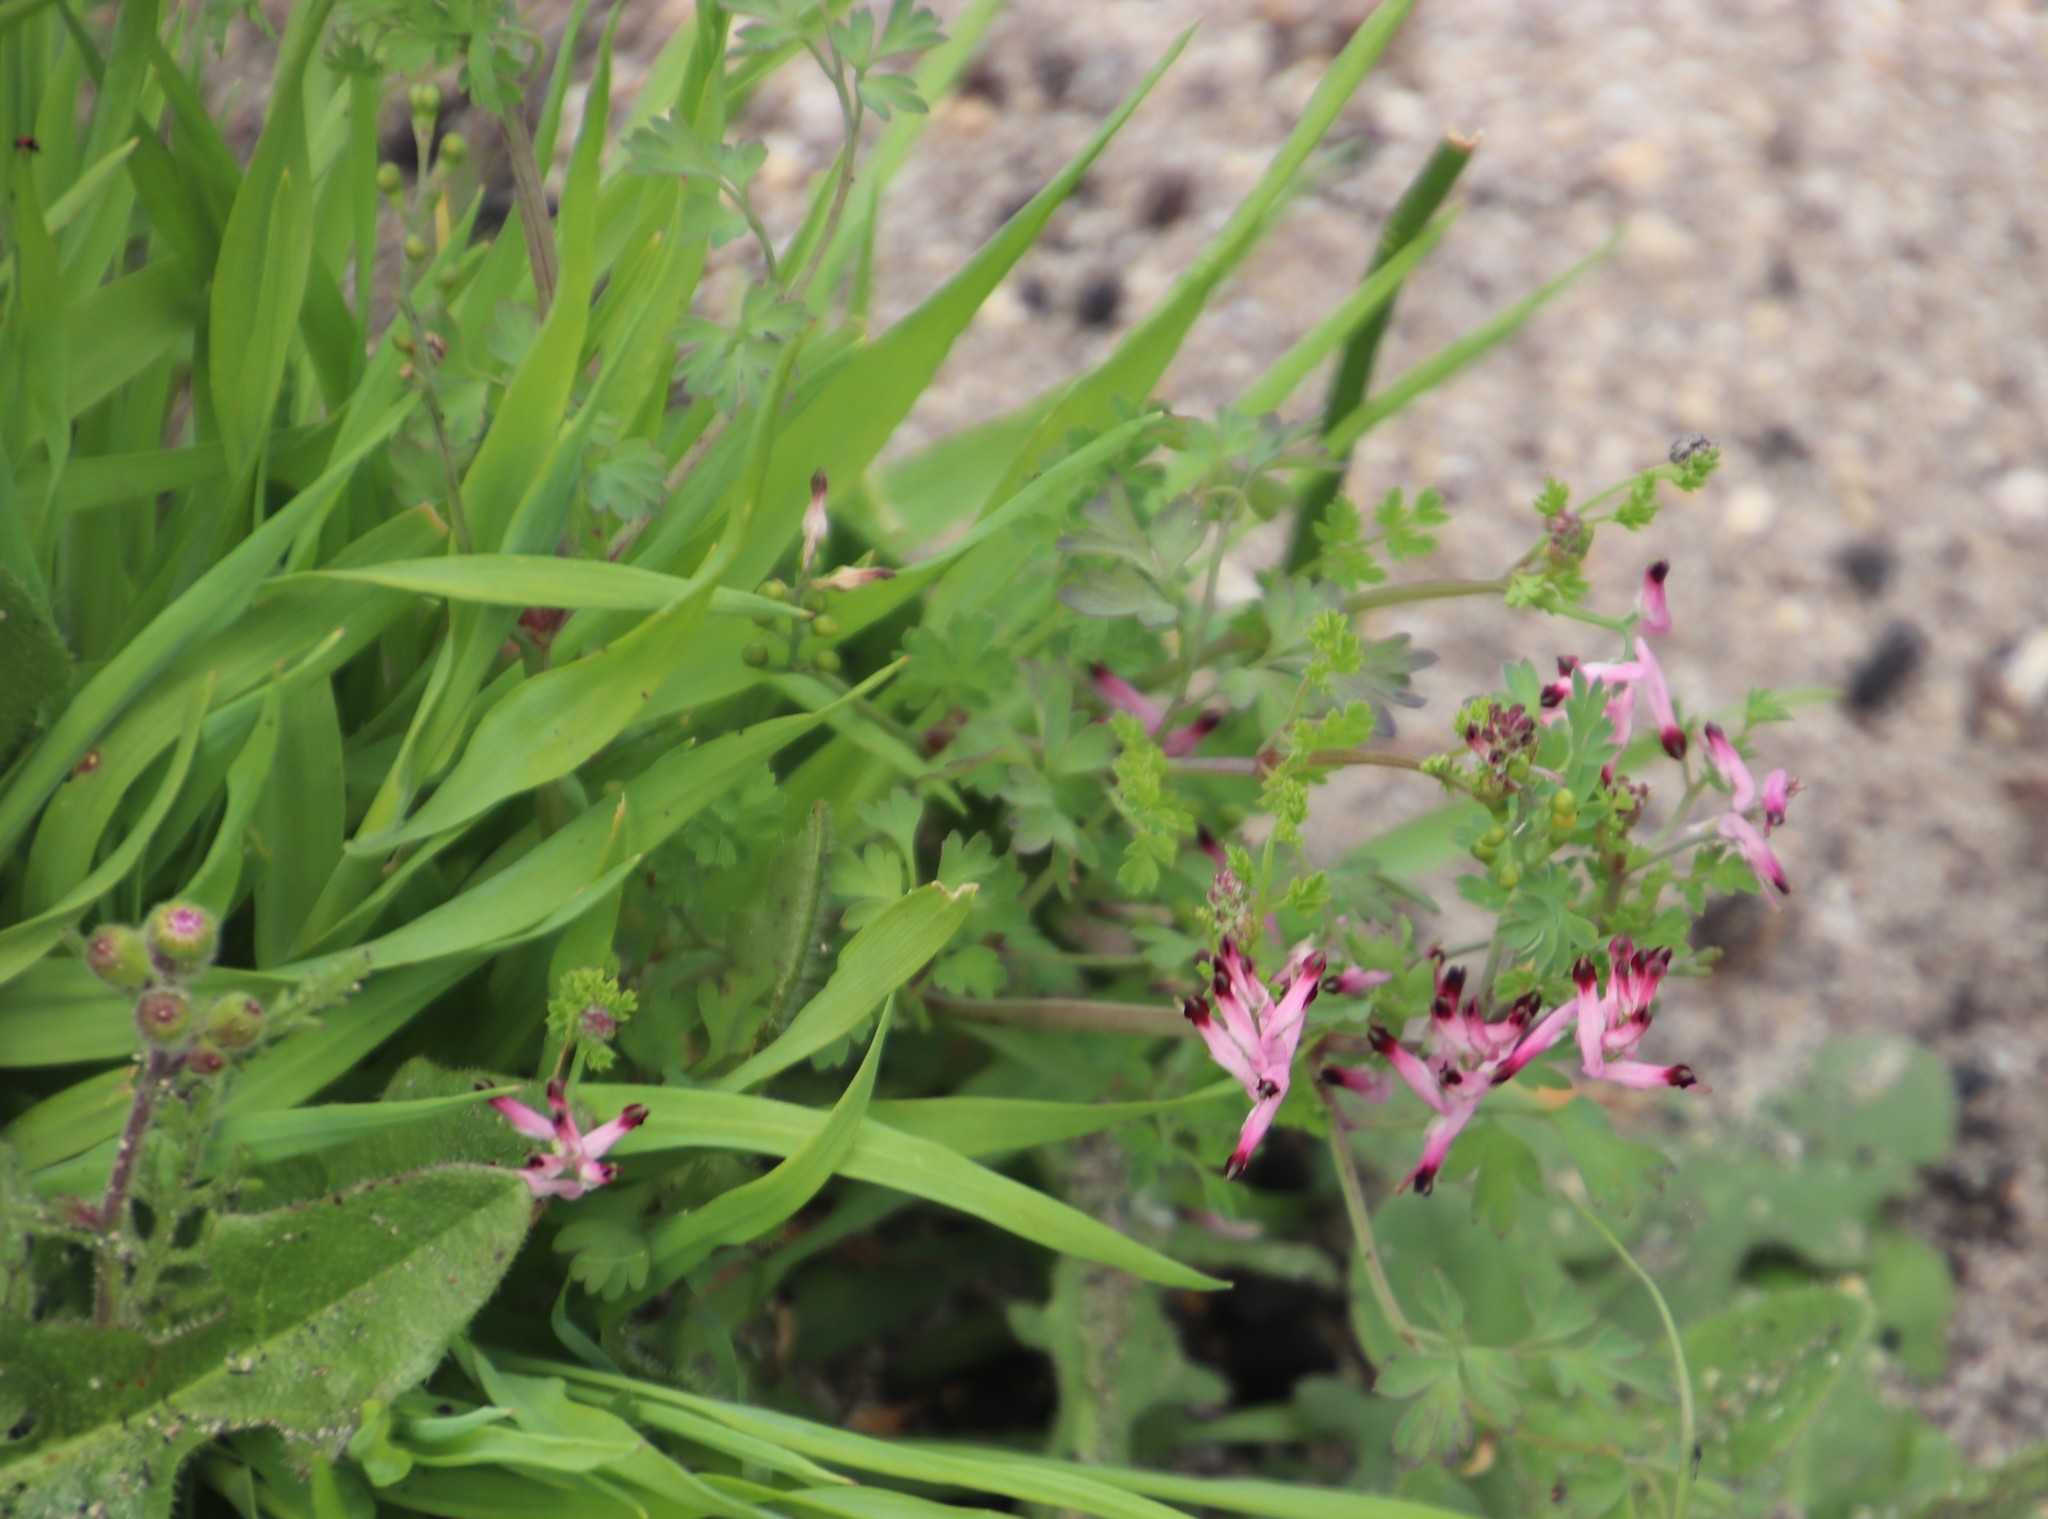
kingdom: Plantae
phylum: Tracheophyta
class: Magnoliopsida
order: Ranunculales
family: Papaveraceae
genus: Fumaria
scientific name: Fumaria muralis
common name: Common ramping-fumitory
